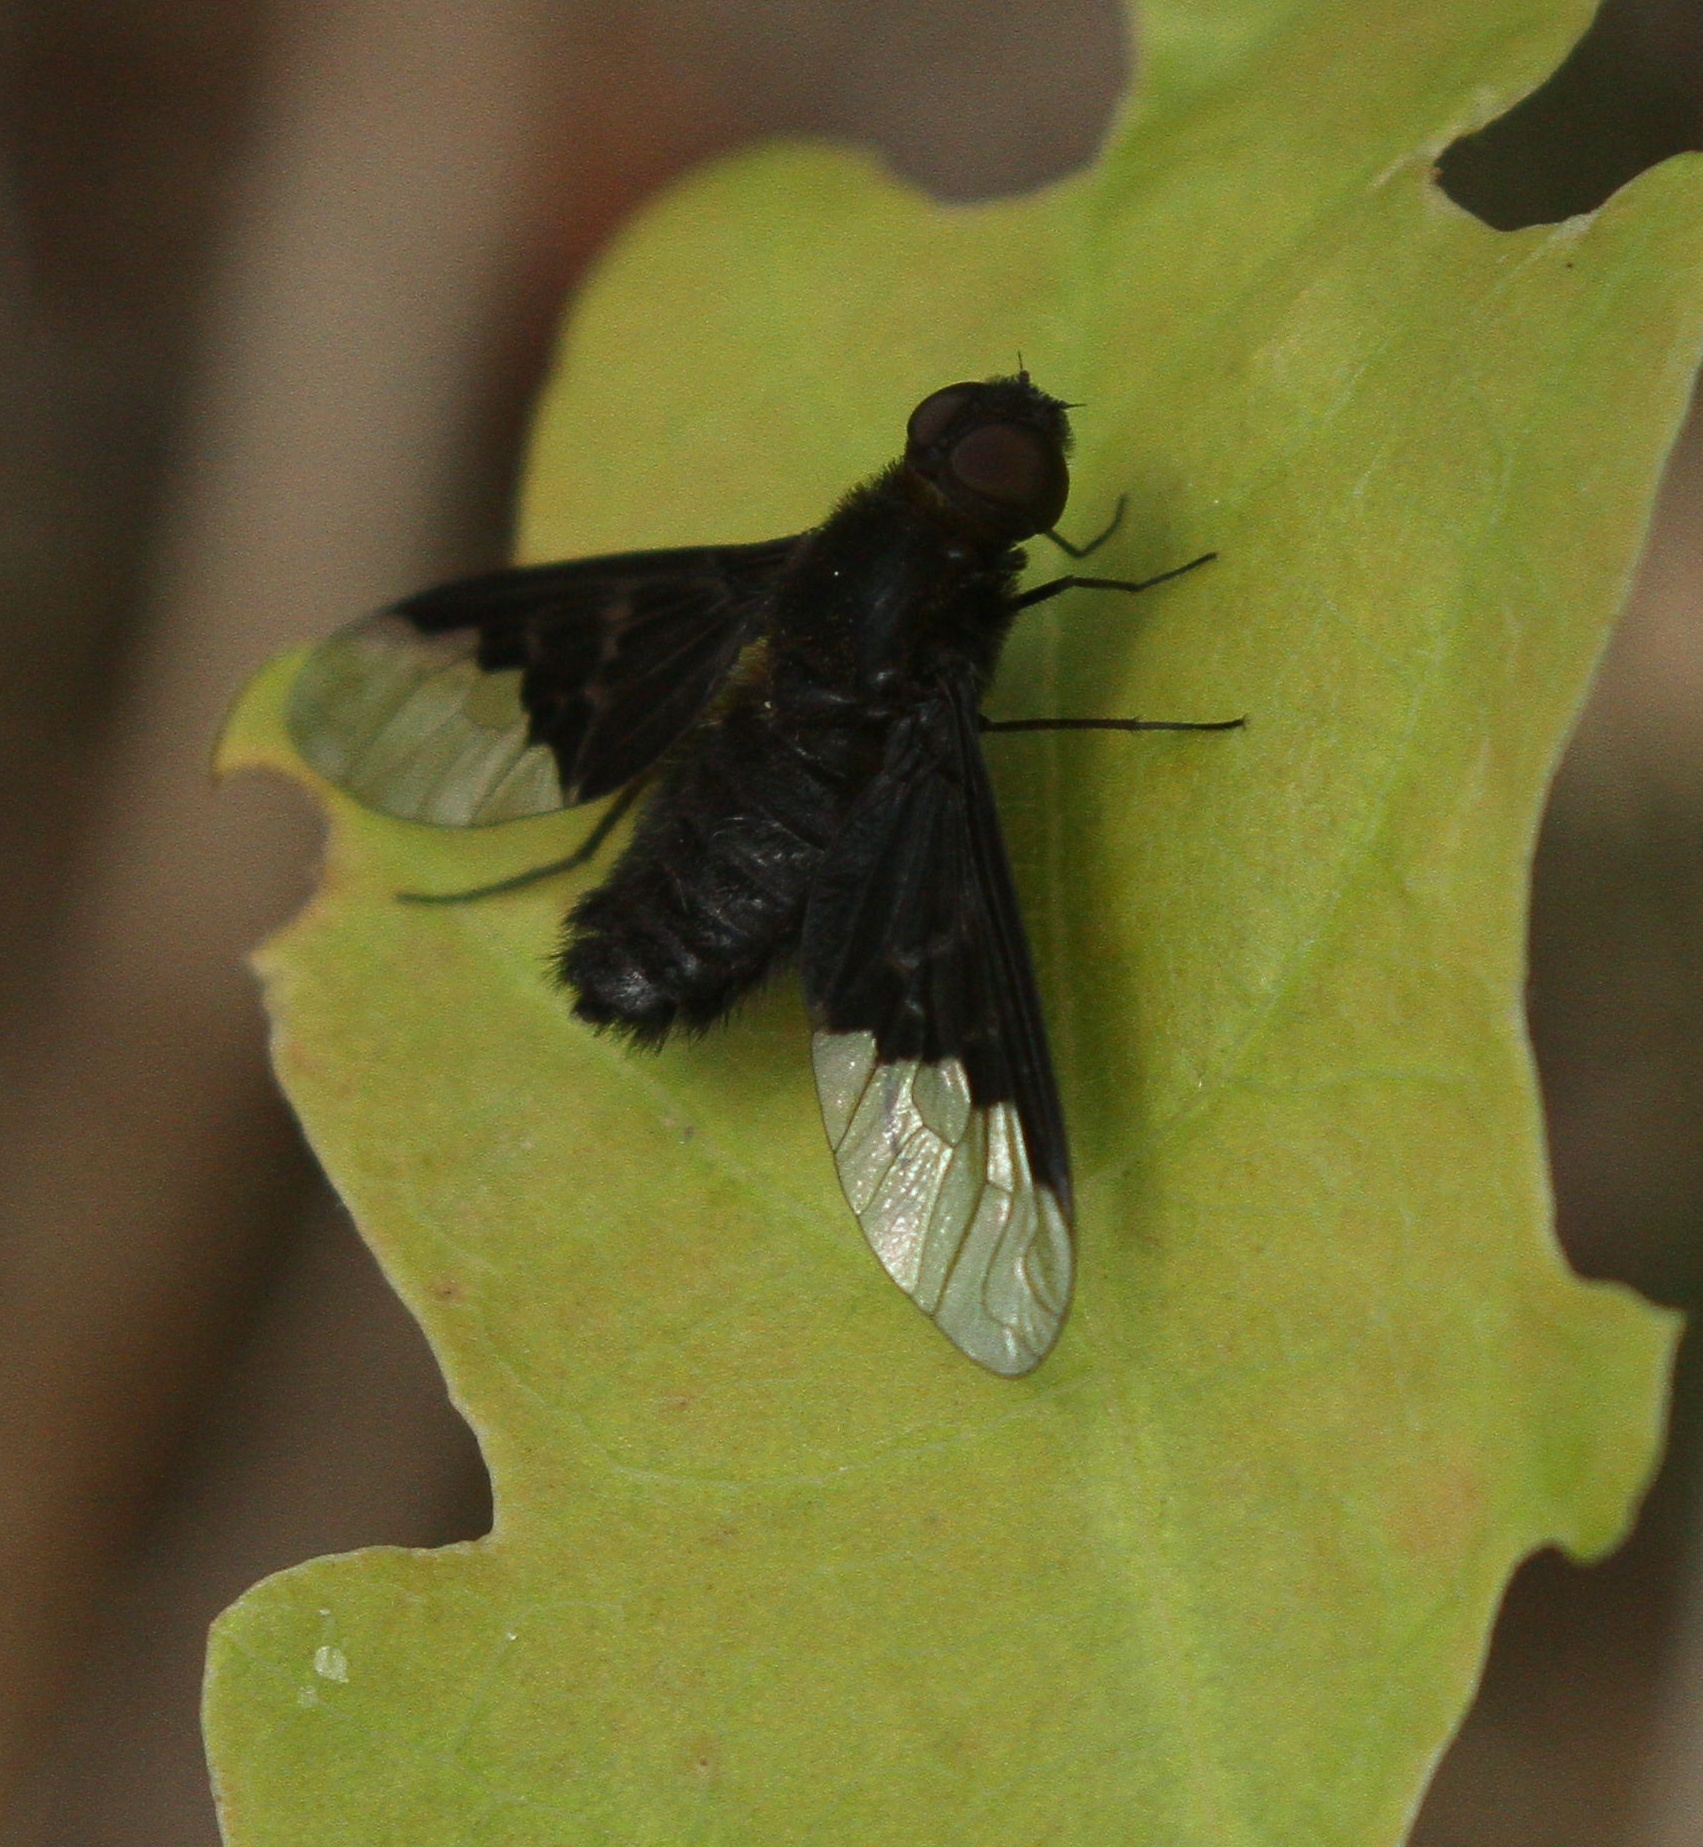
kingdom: Animalia
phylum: Arthropoda
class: Insecta
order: Diptera
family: Bombyliidae
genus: Hemipenthes
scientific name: Hemipenthes morio
